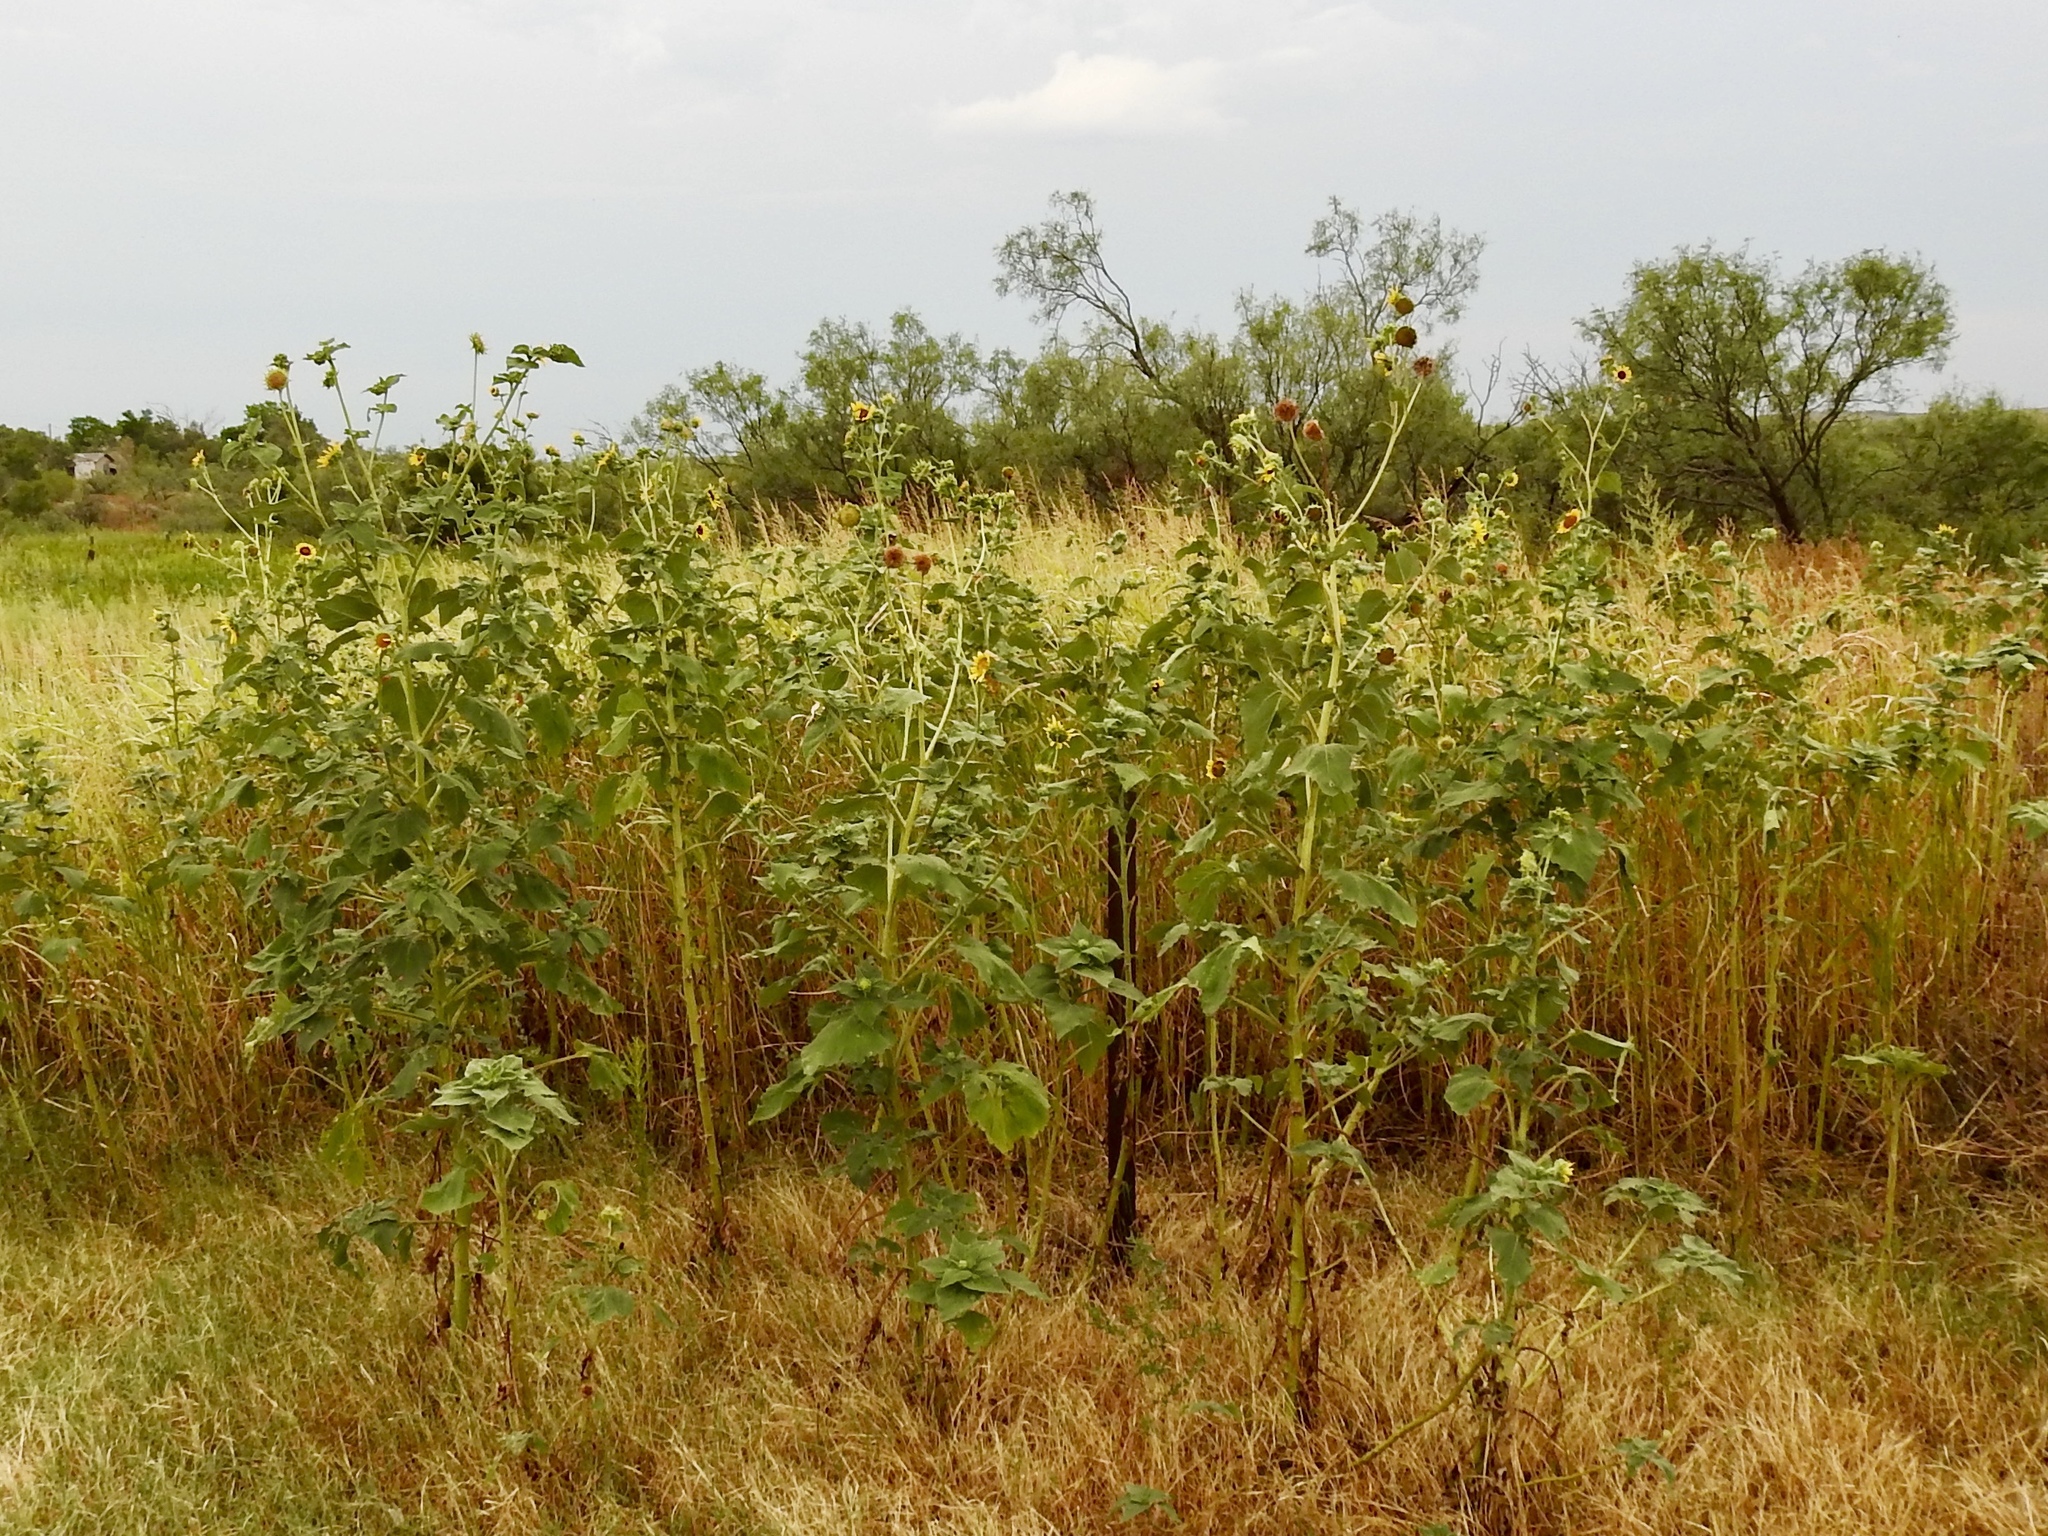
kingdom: Plantae
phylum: Tracheophyta
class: Magnoliopsida
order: Asterales
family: Asteraceae
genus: Helianthus
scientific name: Helianthus annuus
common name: Sunflower
